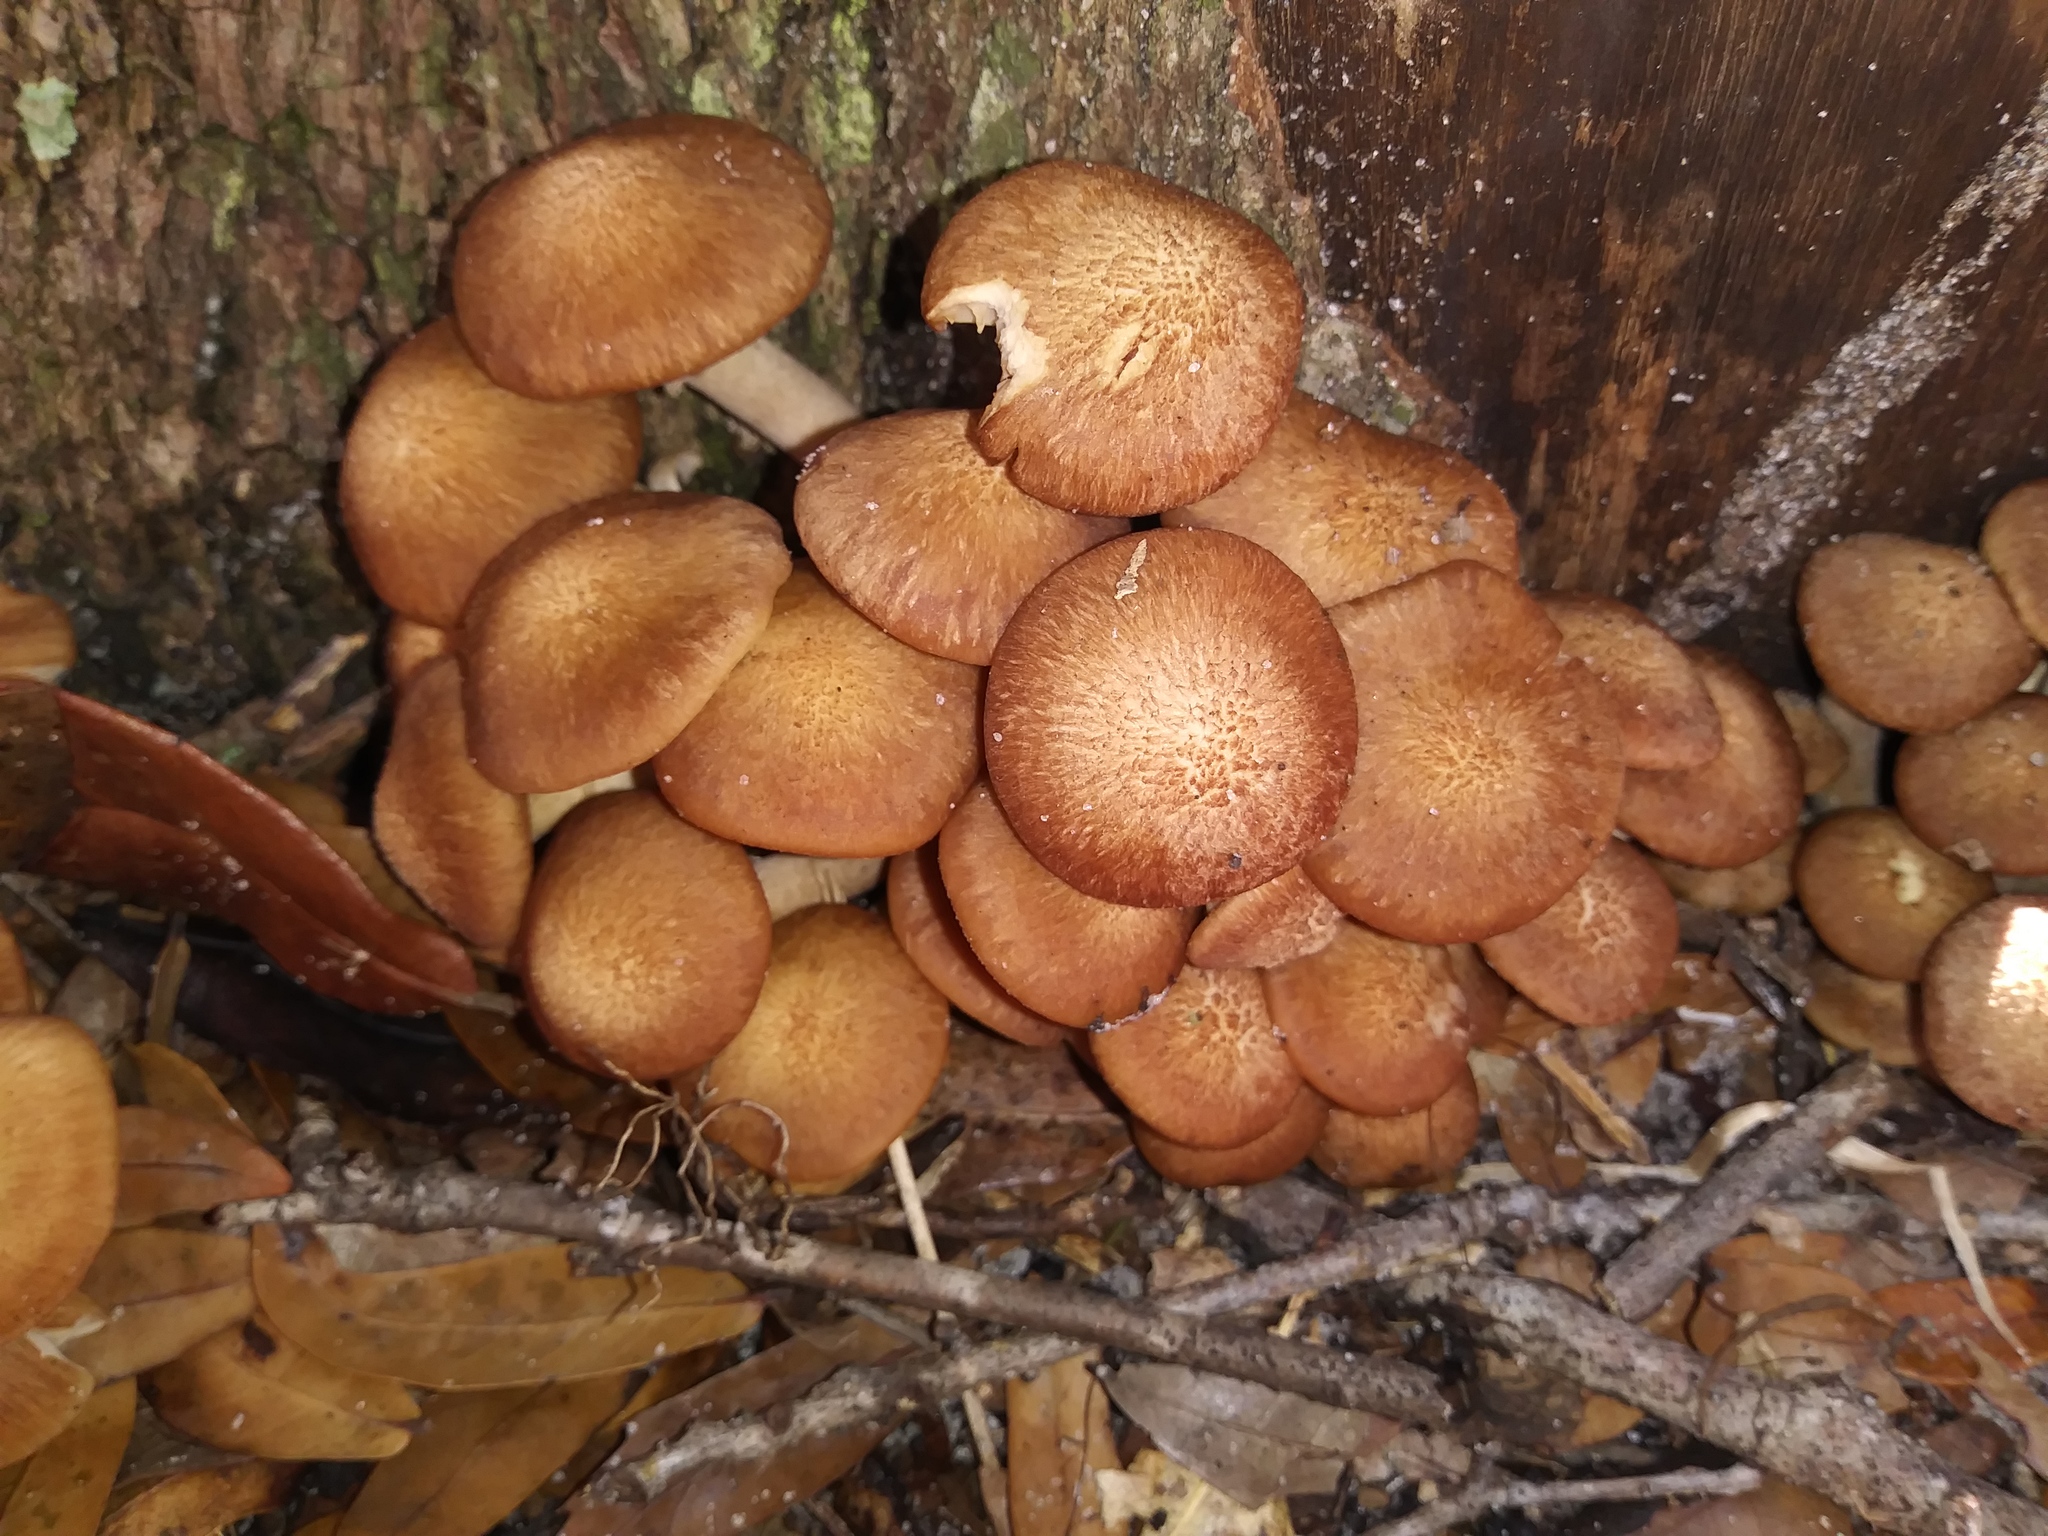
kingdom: Fungi
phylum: Basidiomycota
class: Agaricomycetes
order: Agaricales
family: Physalacriaceae
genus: Desarmillaria
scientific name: Desarmillaria caespitosa
